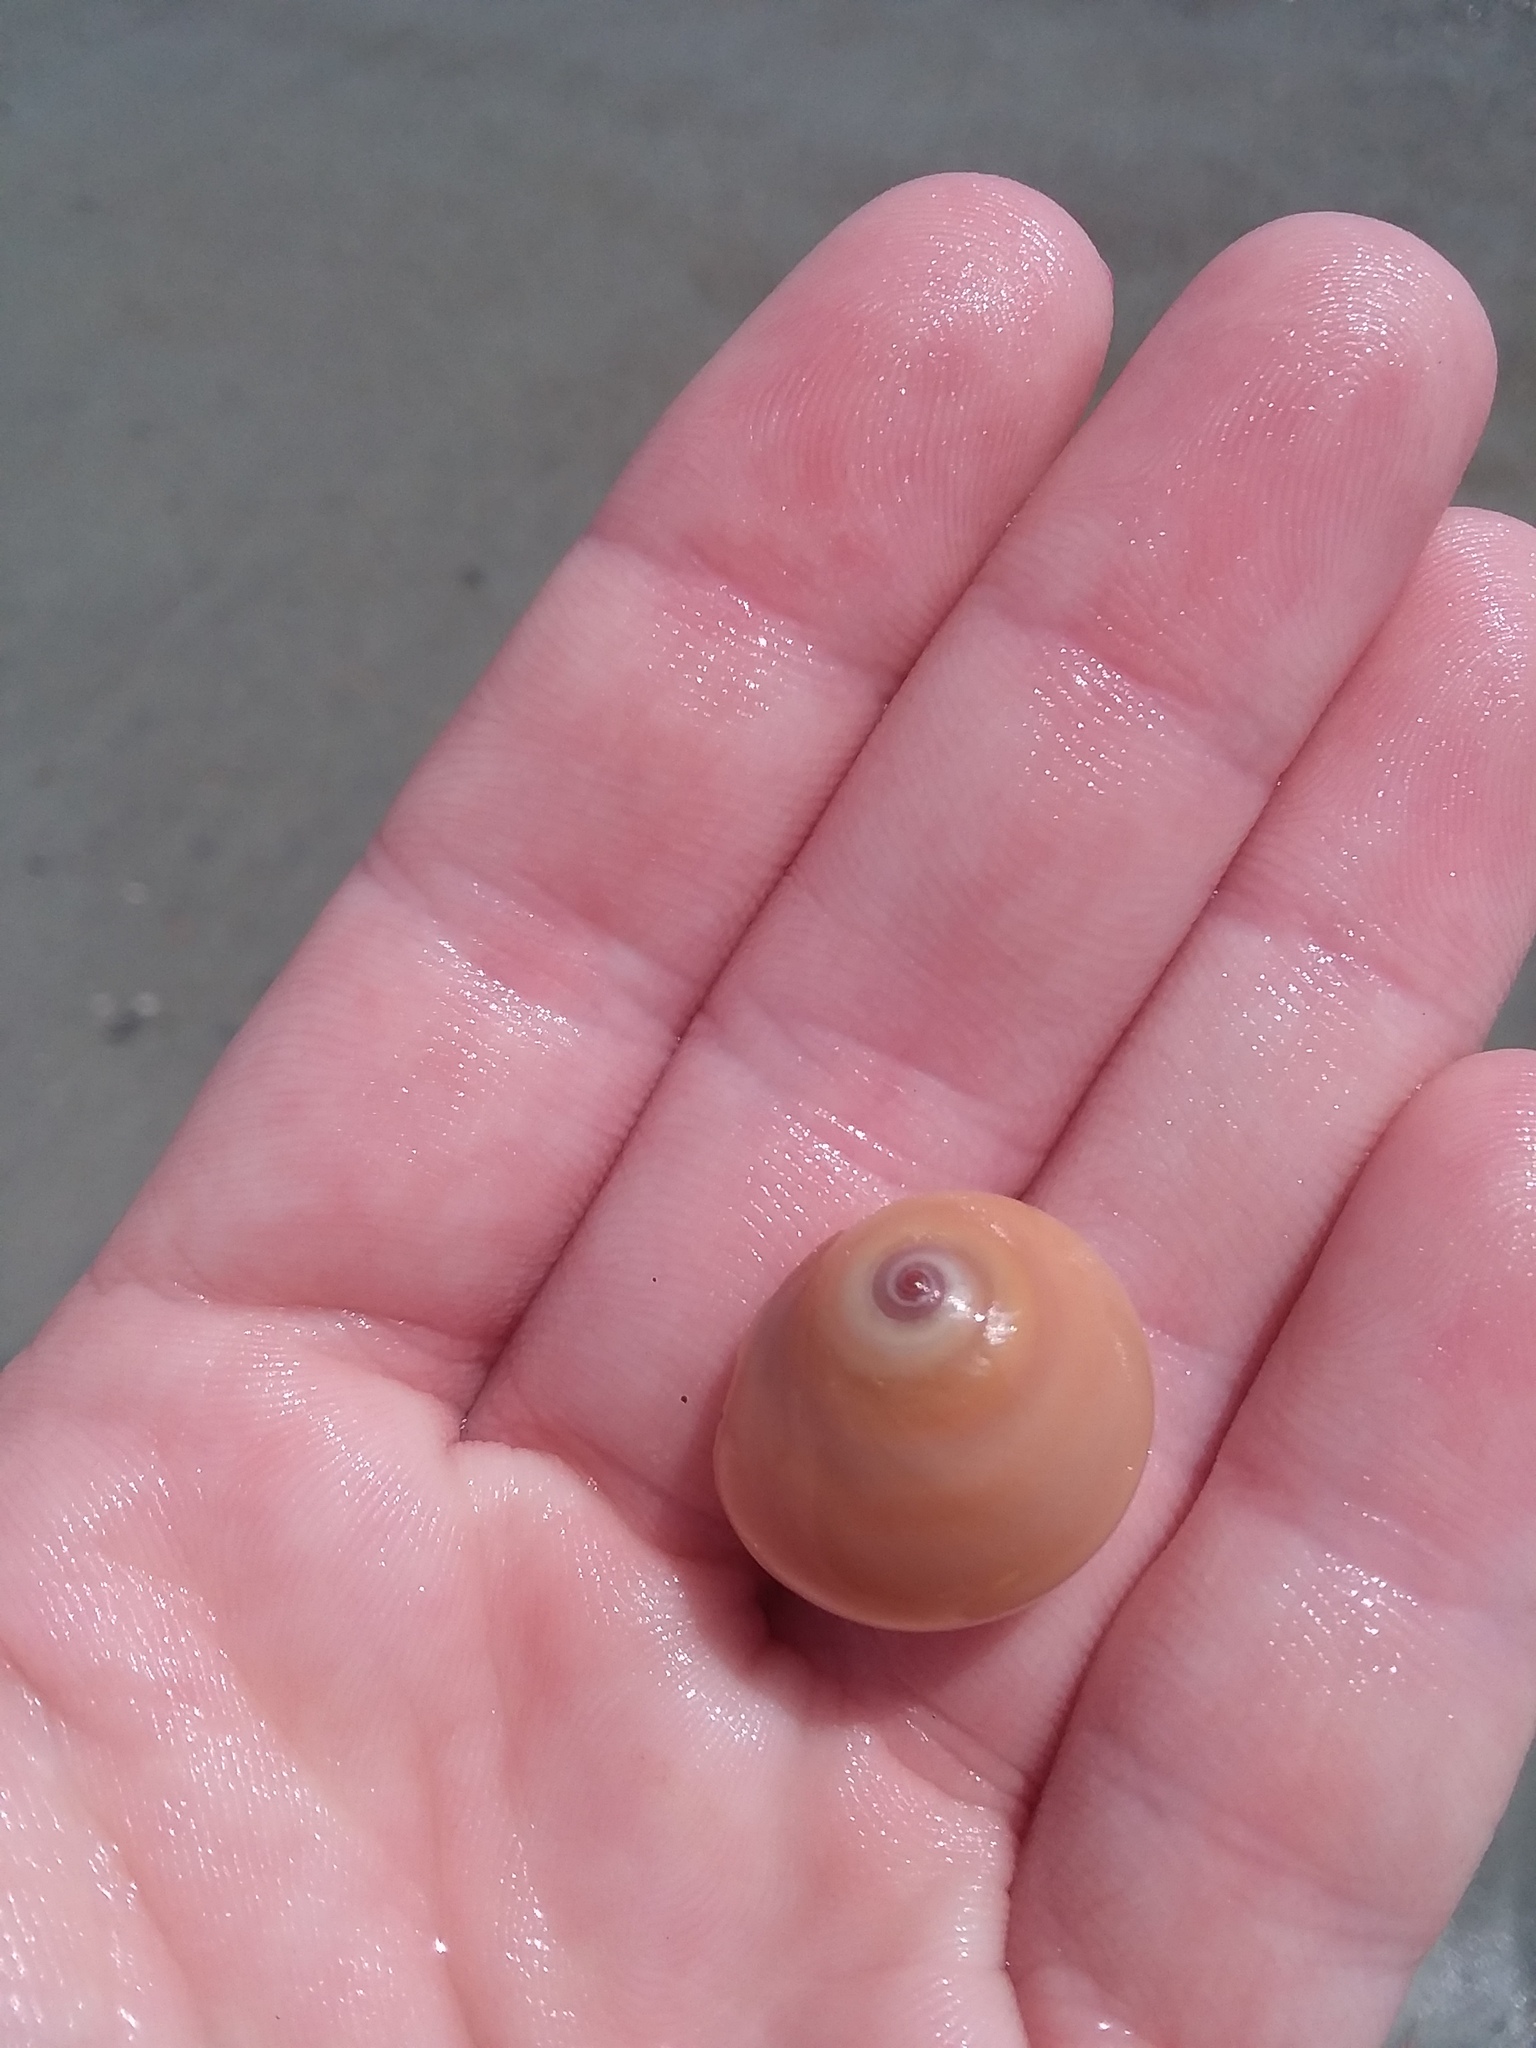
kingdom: Animalia
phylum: Mollusca
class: Gastropoda
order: Littorinimorpha
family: Naticidae
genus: Neverita
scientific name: Neverita duplicata
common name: Lobed moonsnail
